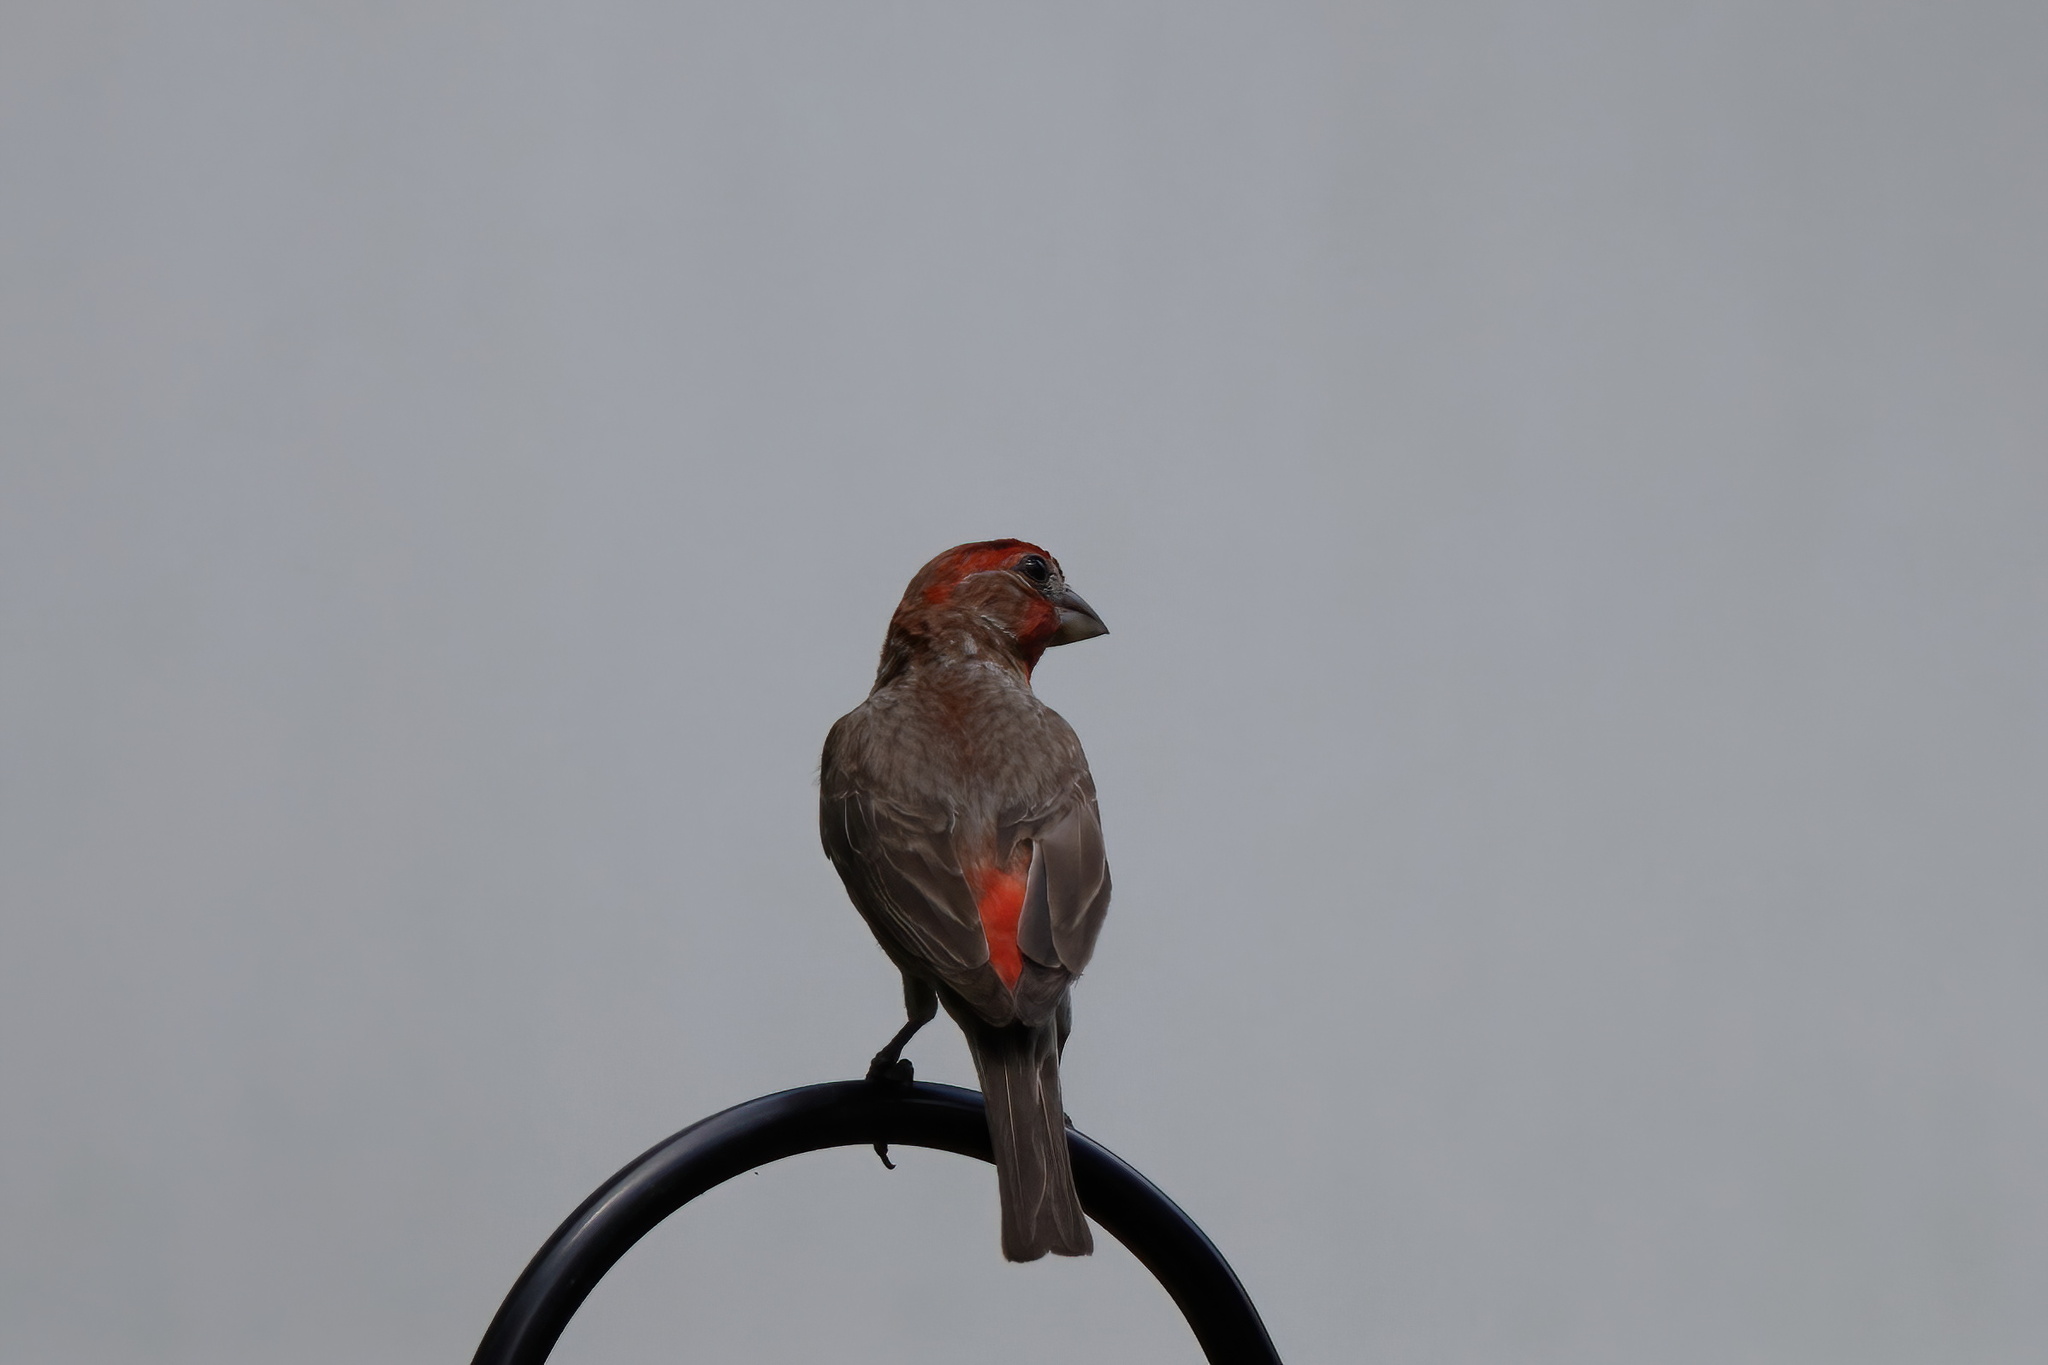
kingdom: Animalia
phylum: Chordata
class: Aves
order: Passeriformes
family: Fringillidae
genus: Haemorhous
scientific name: Haemorhous mexicanus
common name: House finch
